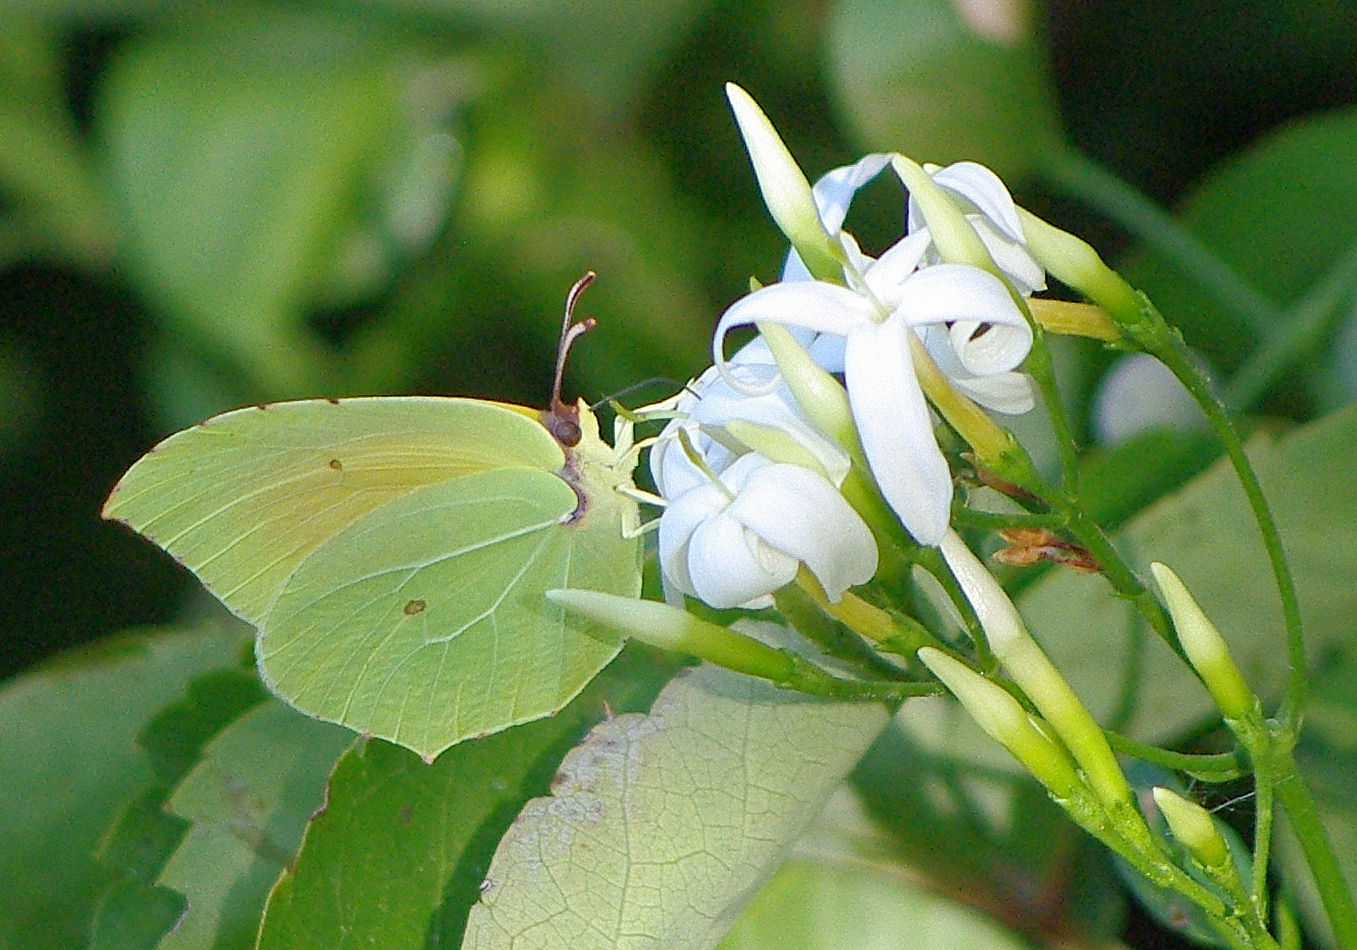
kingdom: Animalia
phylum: Arthropoda
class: Insecta
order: Lepidoptera
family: Pieridae
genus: Gonepteryx
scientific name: Gonepteryx cleopatra
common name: Cleopatra
